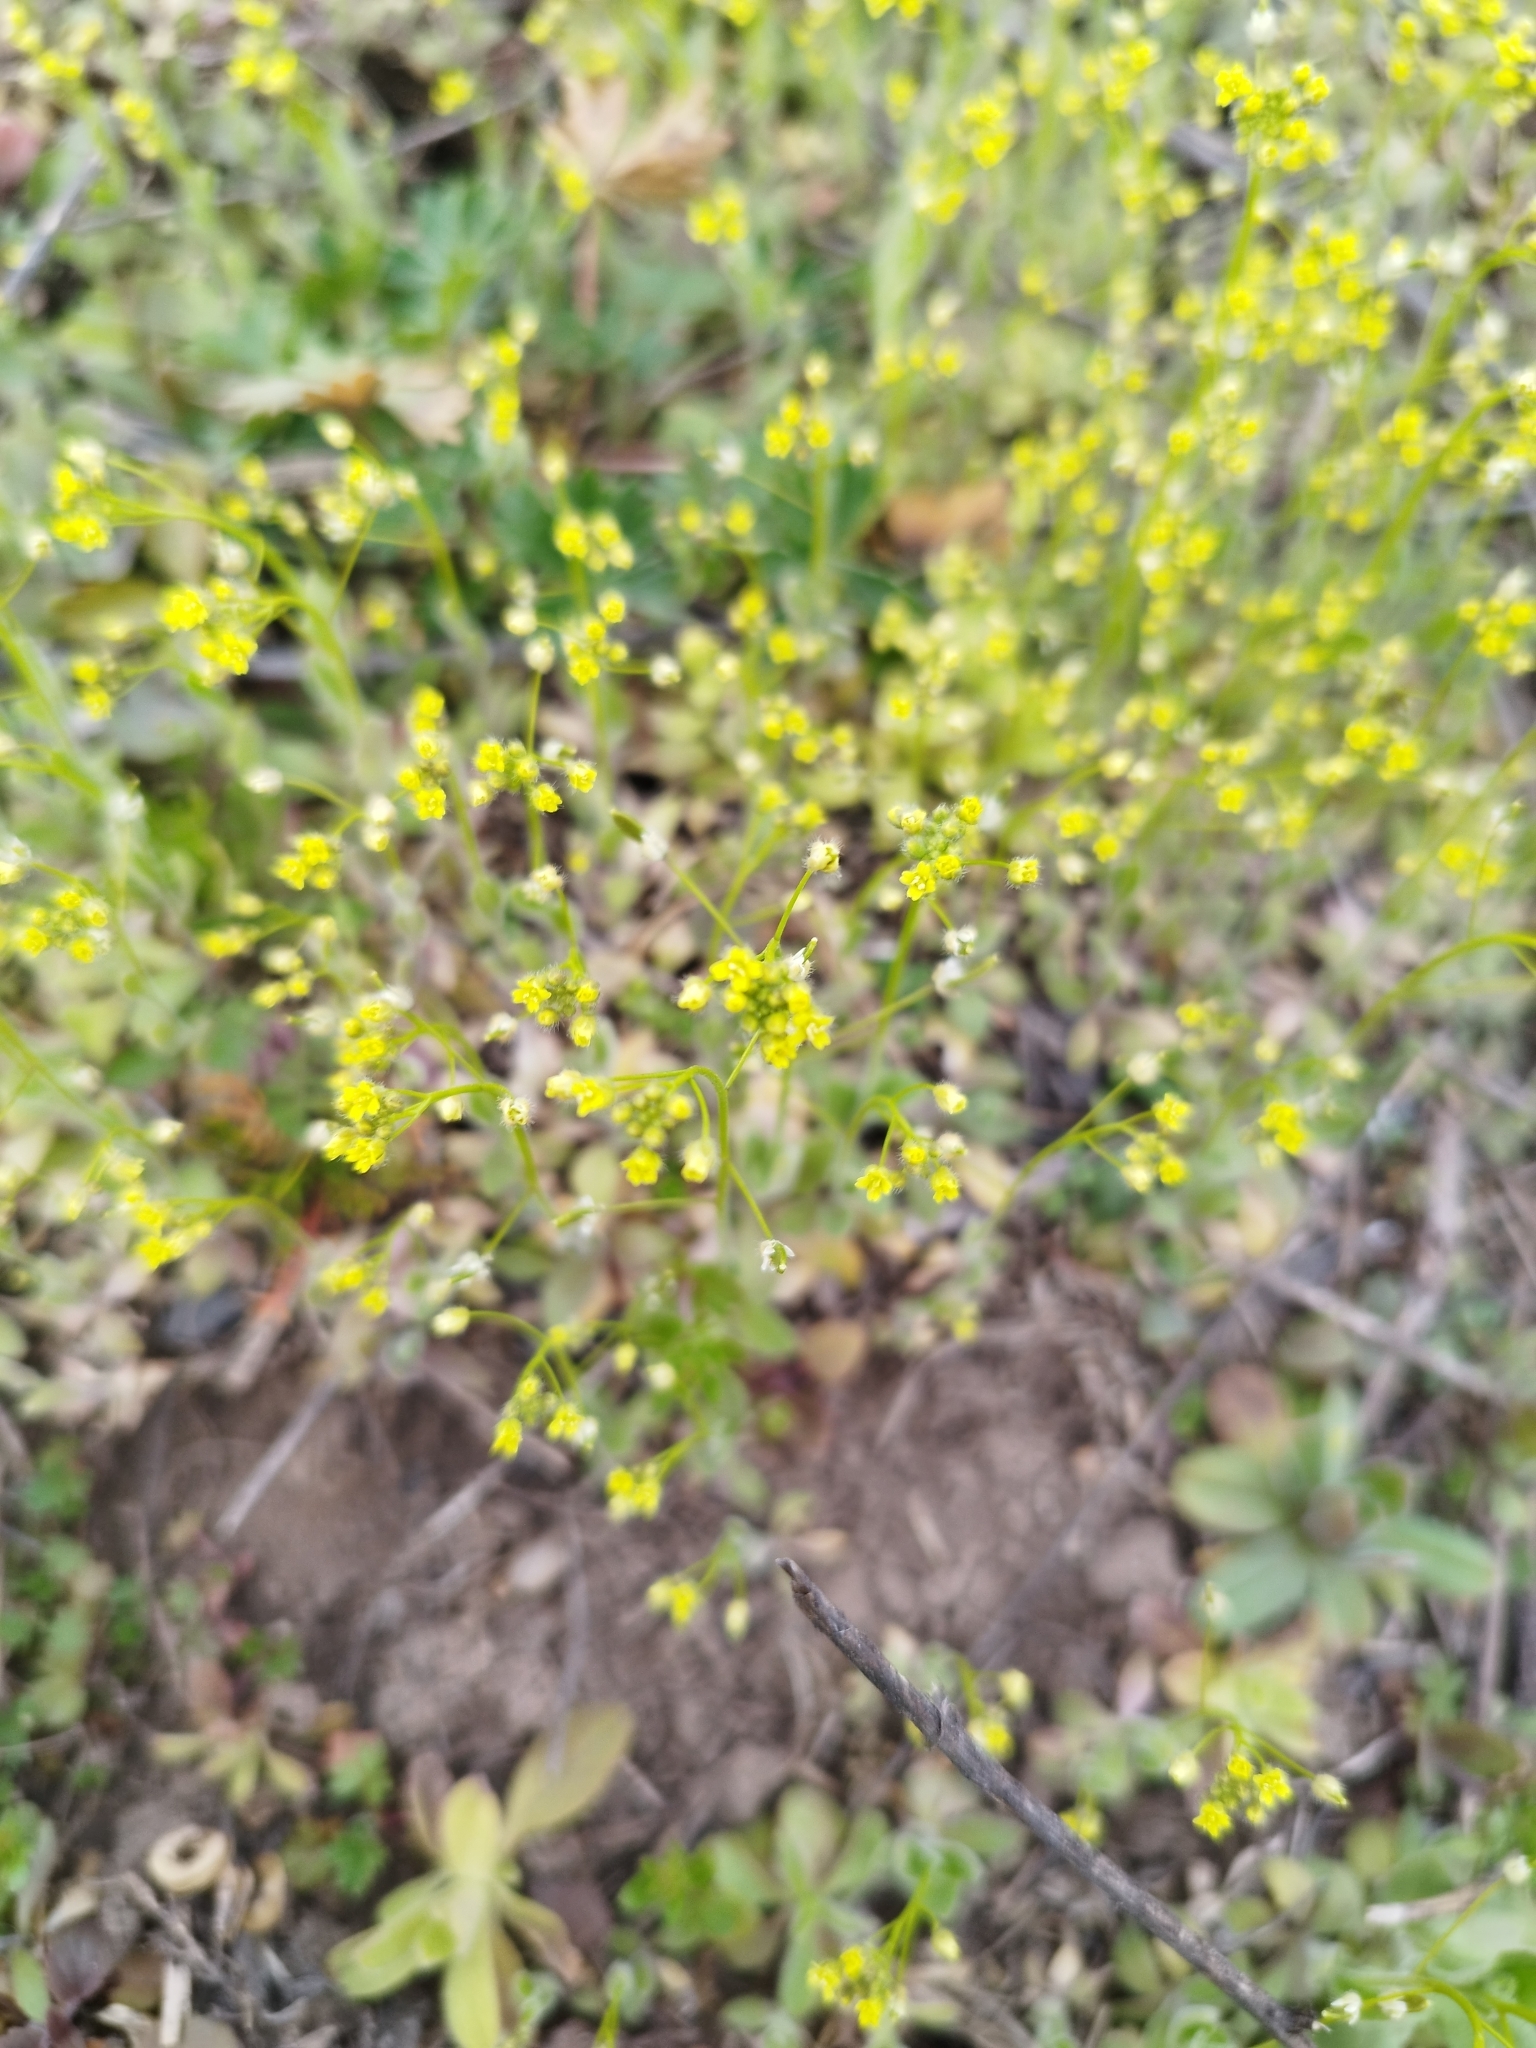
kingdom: Plantae
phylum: Tracheophyta
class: Magnoliopsida
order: Brassicales
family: Brassicaceae
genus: Draba
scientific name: Draba nemorosa
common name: Wood whitlow-grass
